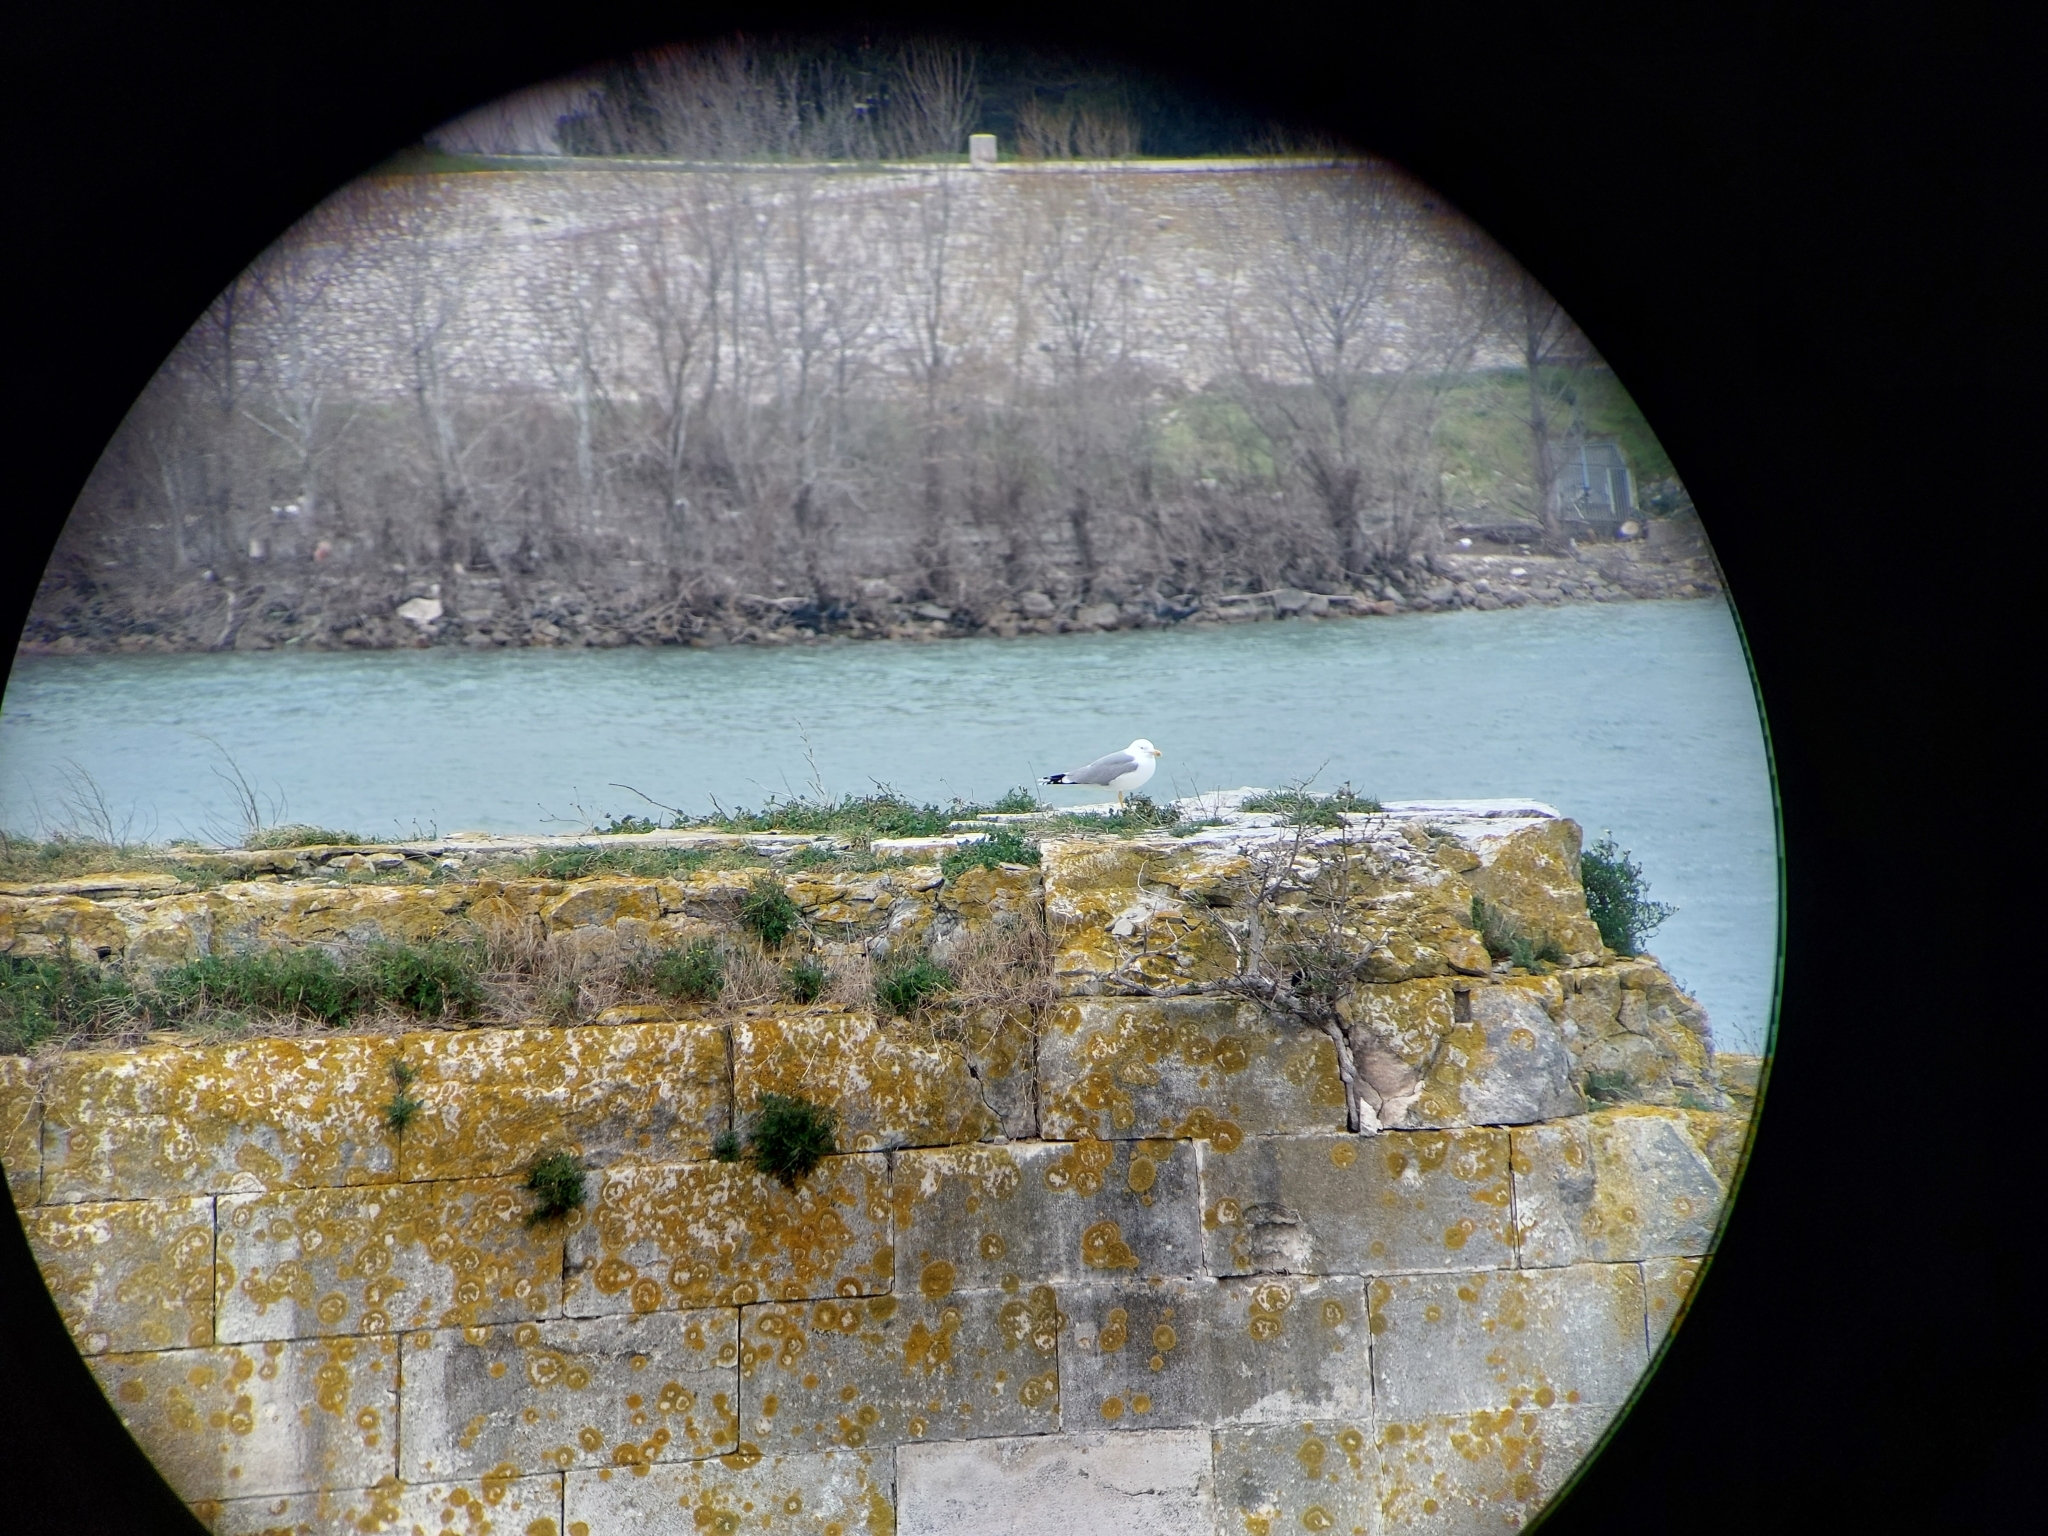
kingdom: Animalia
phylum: Chordata
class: Aves
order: Charadriiformes
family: Laridae
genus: Larus
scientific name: Larus michahellis
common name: Yellow-legged gull
